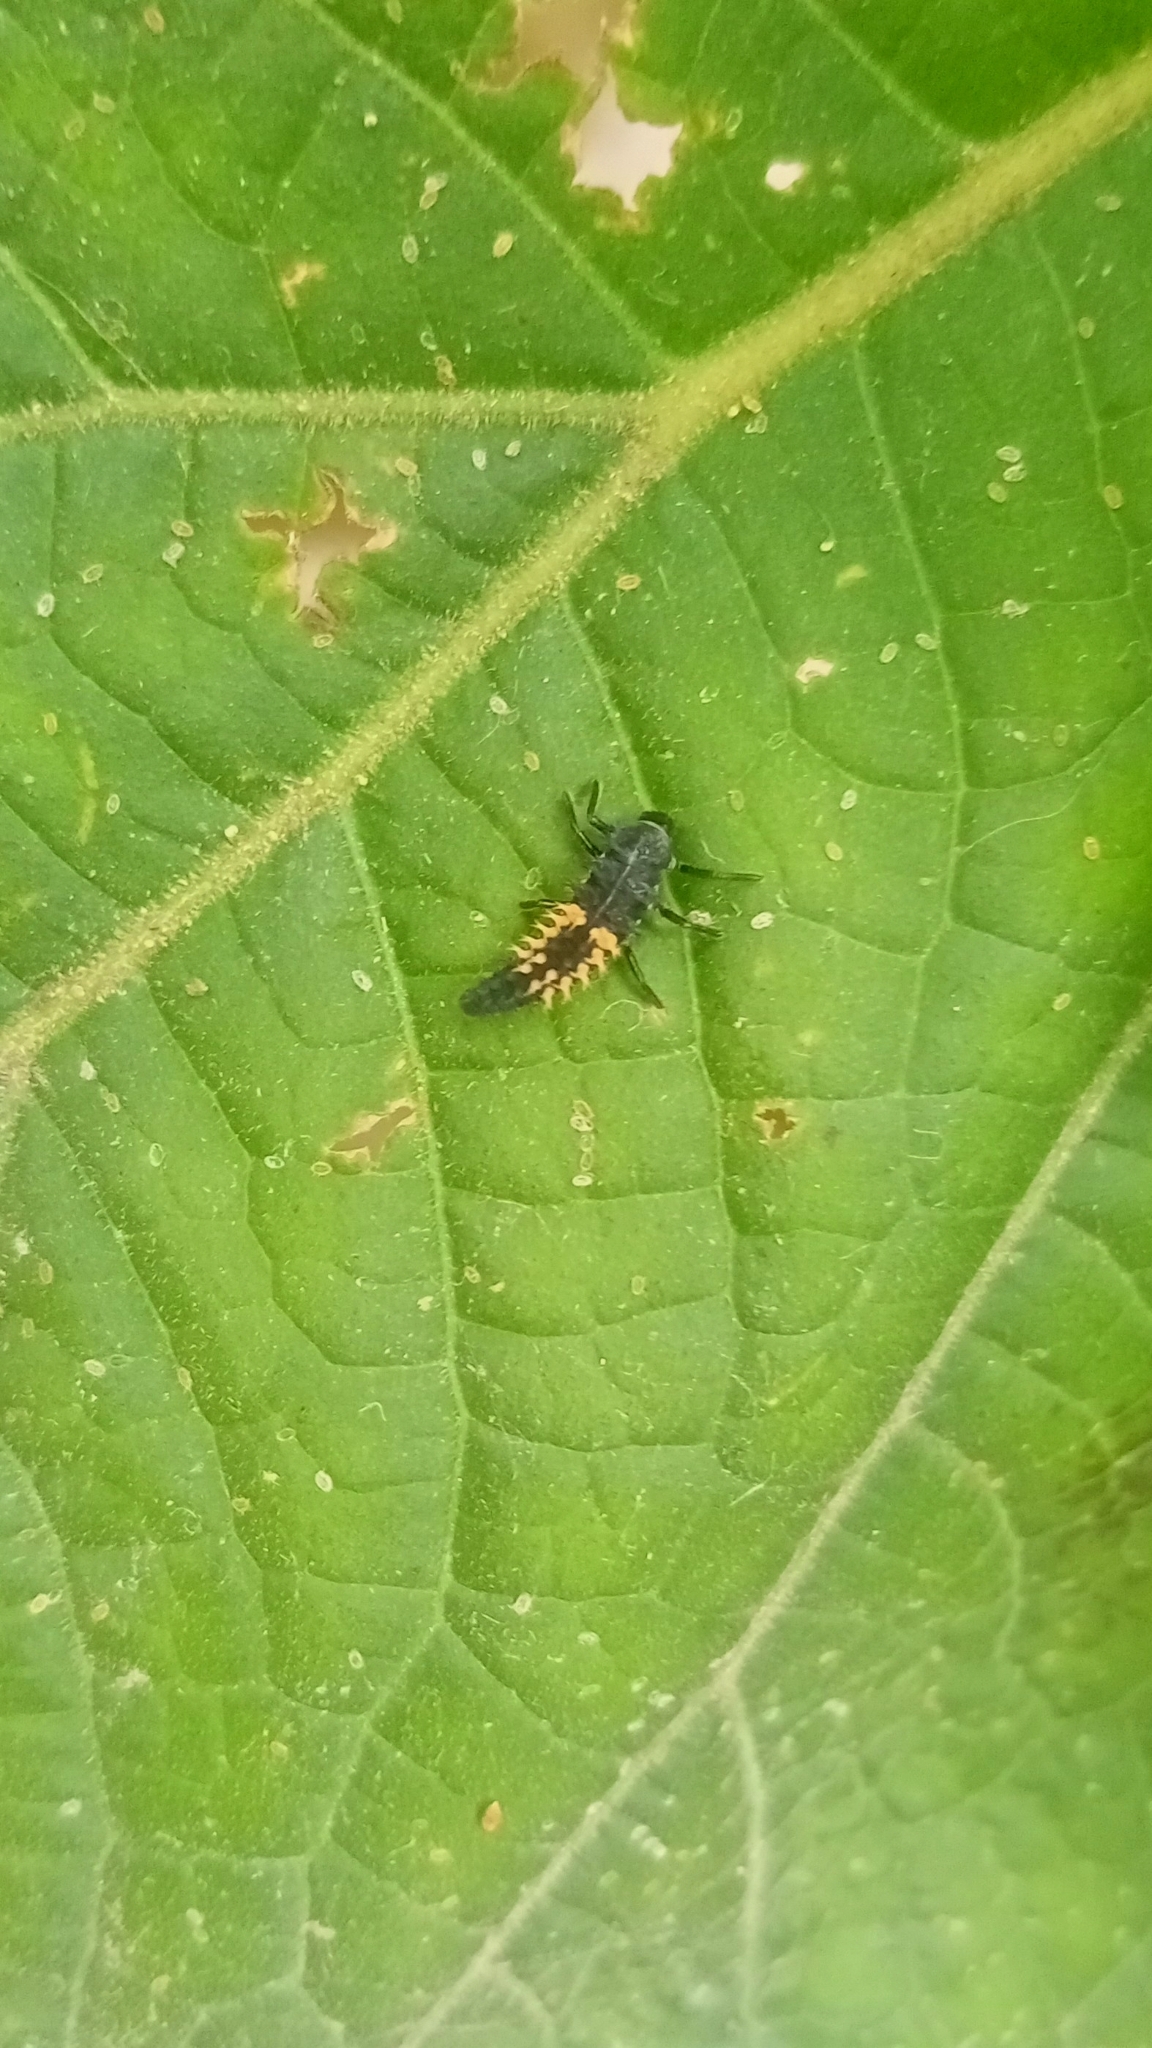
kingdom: Animalia
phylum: Arthropoda
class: Insecta
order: Coleoptera
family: Coccinellidae
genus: Harmonia
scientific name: Harmonia axyridis
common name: Harlequin ladybird
